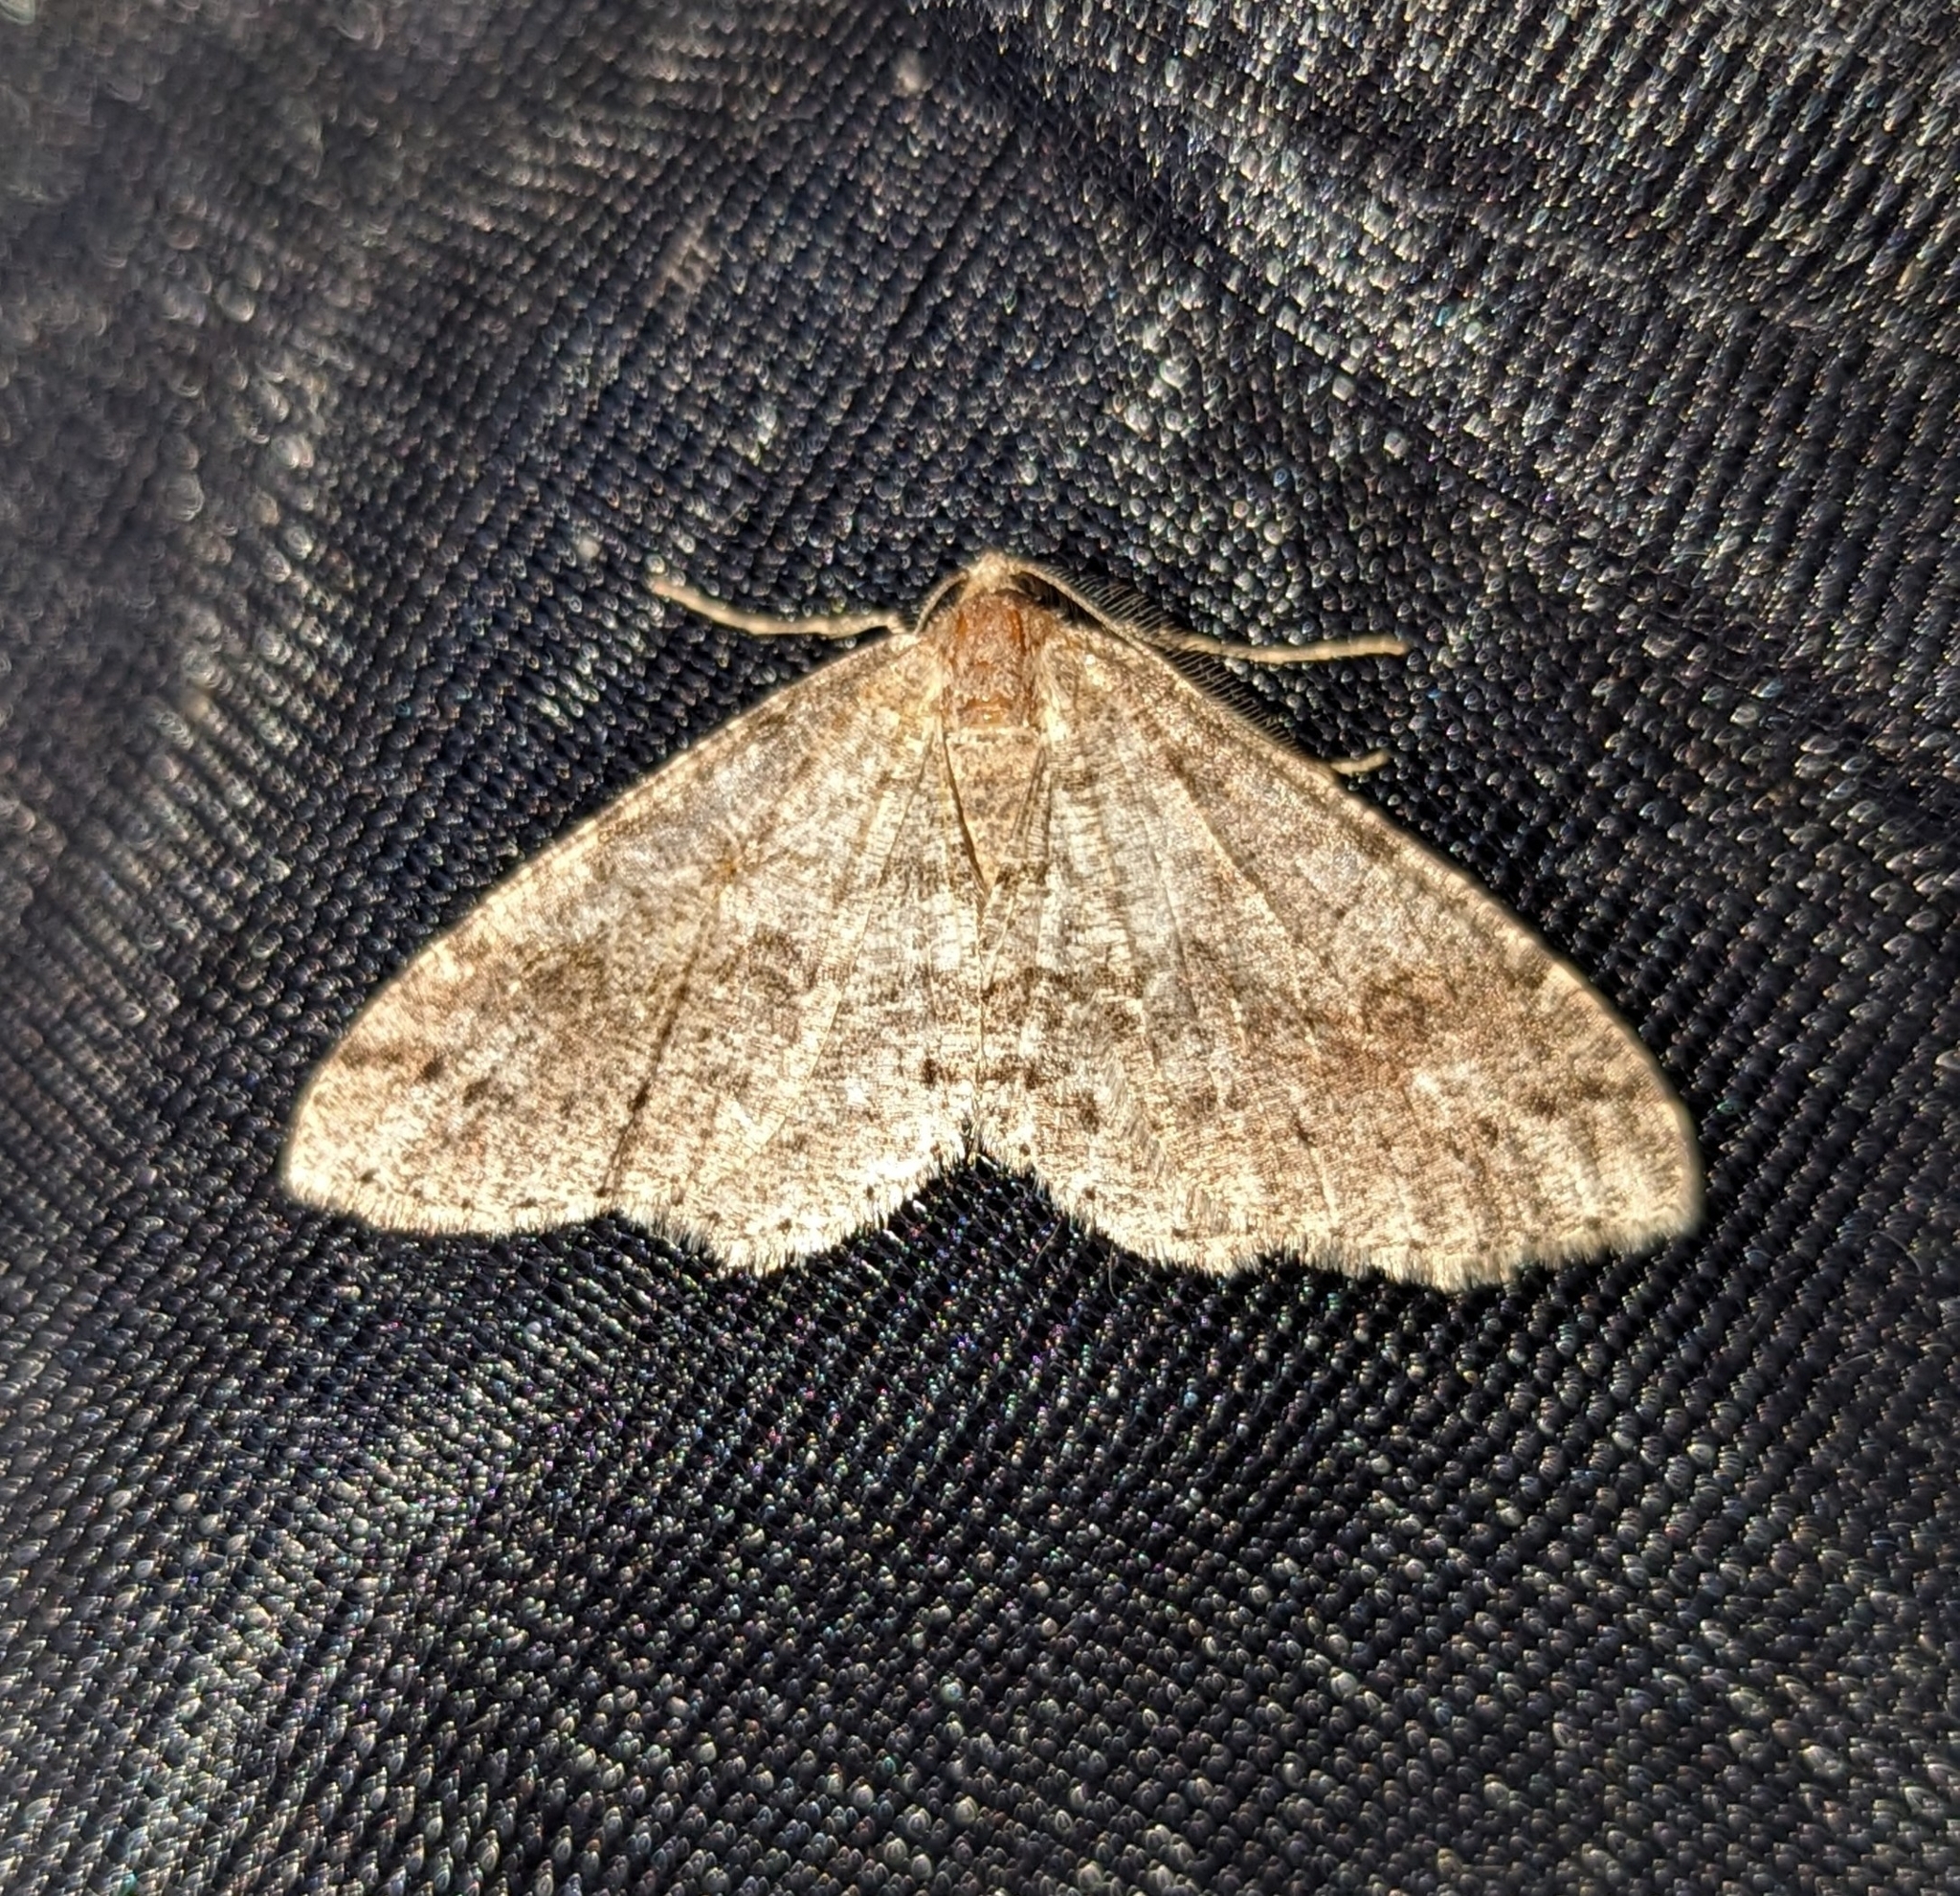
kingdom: Animalia
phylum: Arthropoda
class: Insecta
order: Lepidoptera
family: Geometridae
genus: Melanolophia
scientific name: Melanolophia imitata
